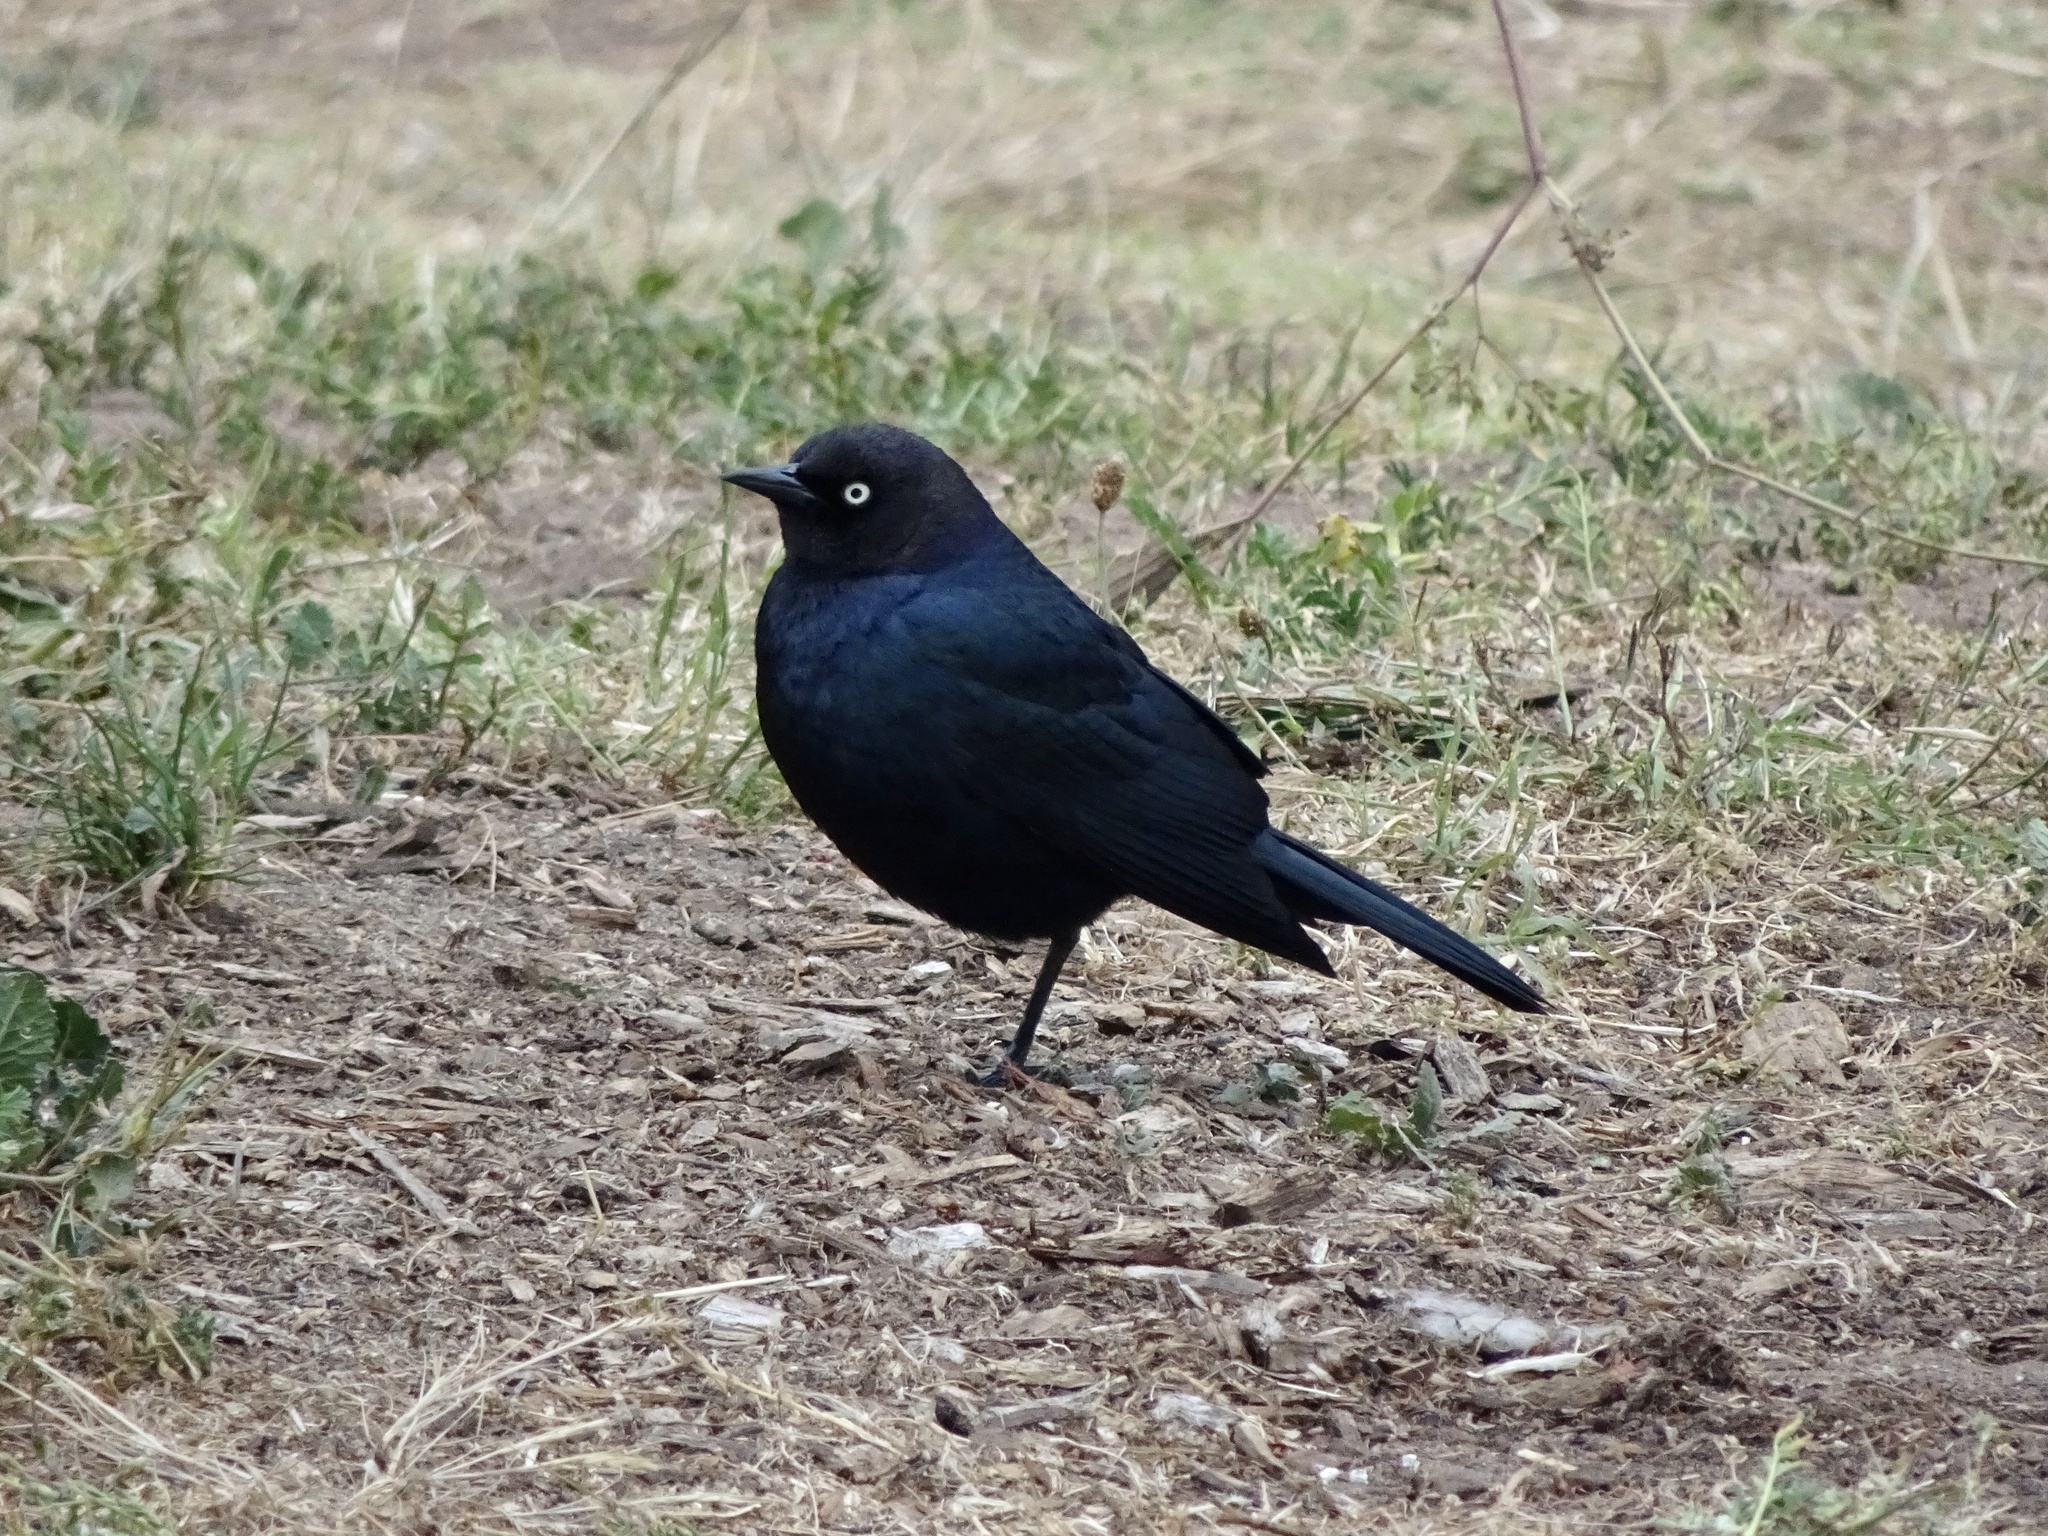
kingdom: Animalia
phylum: Chordata
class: Aves
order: Passeriformes
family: Icteridae
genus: Euphagus
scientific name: Euphagus cyanocephalus
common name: Brewer's blackbird
